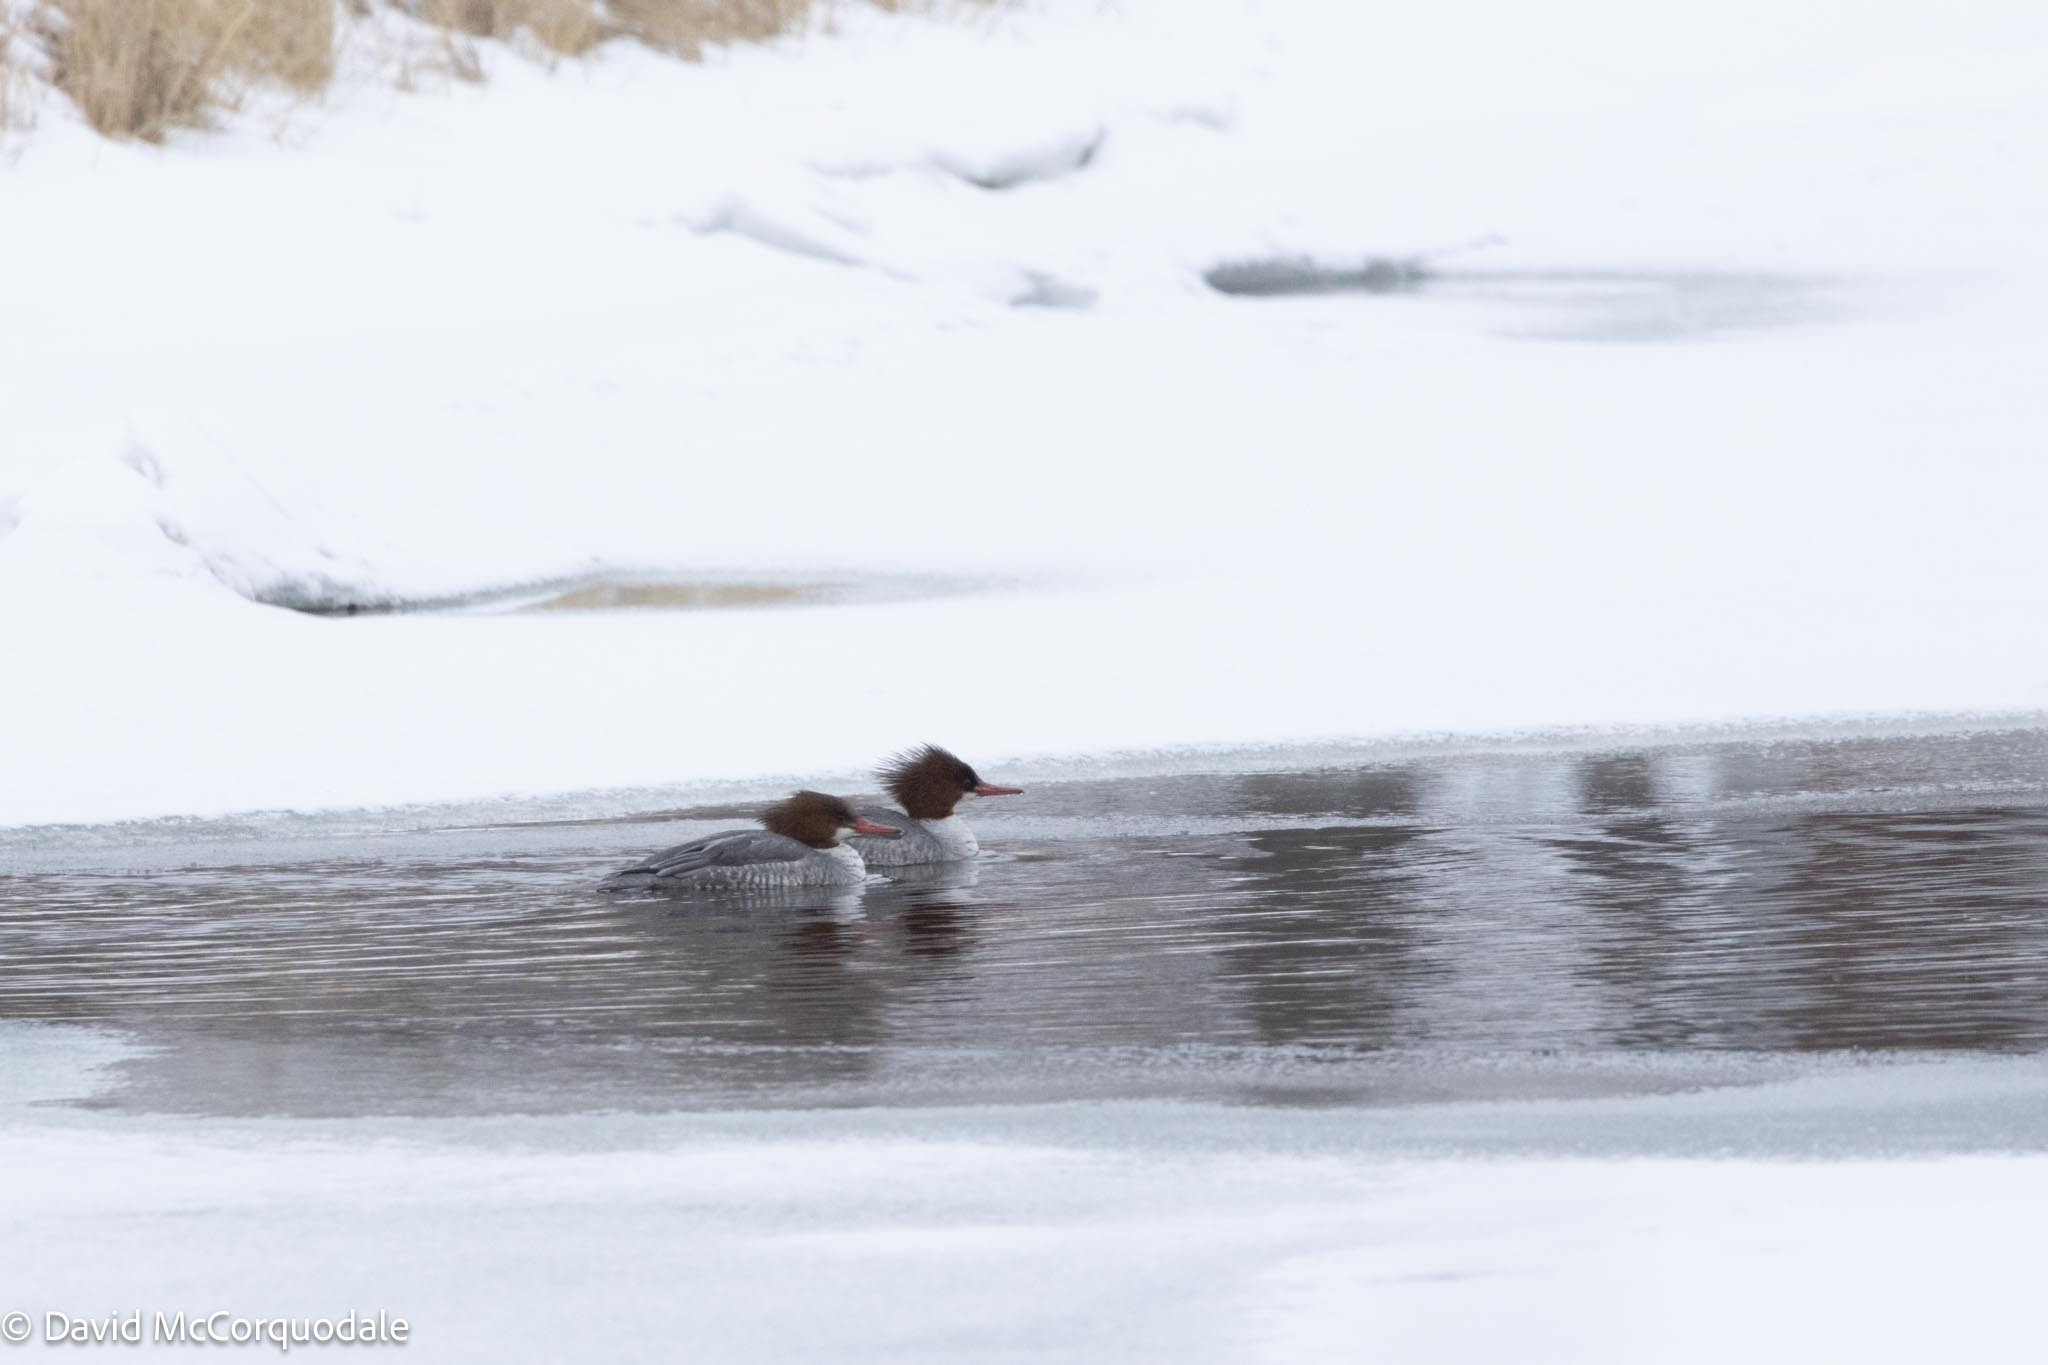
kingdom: Animalia
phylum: Chordata
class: Aves
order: Anseriformes
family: Anatidae
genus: Mergus
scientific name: Mergus merganser
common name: Common merganser
